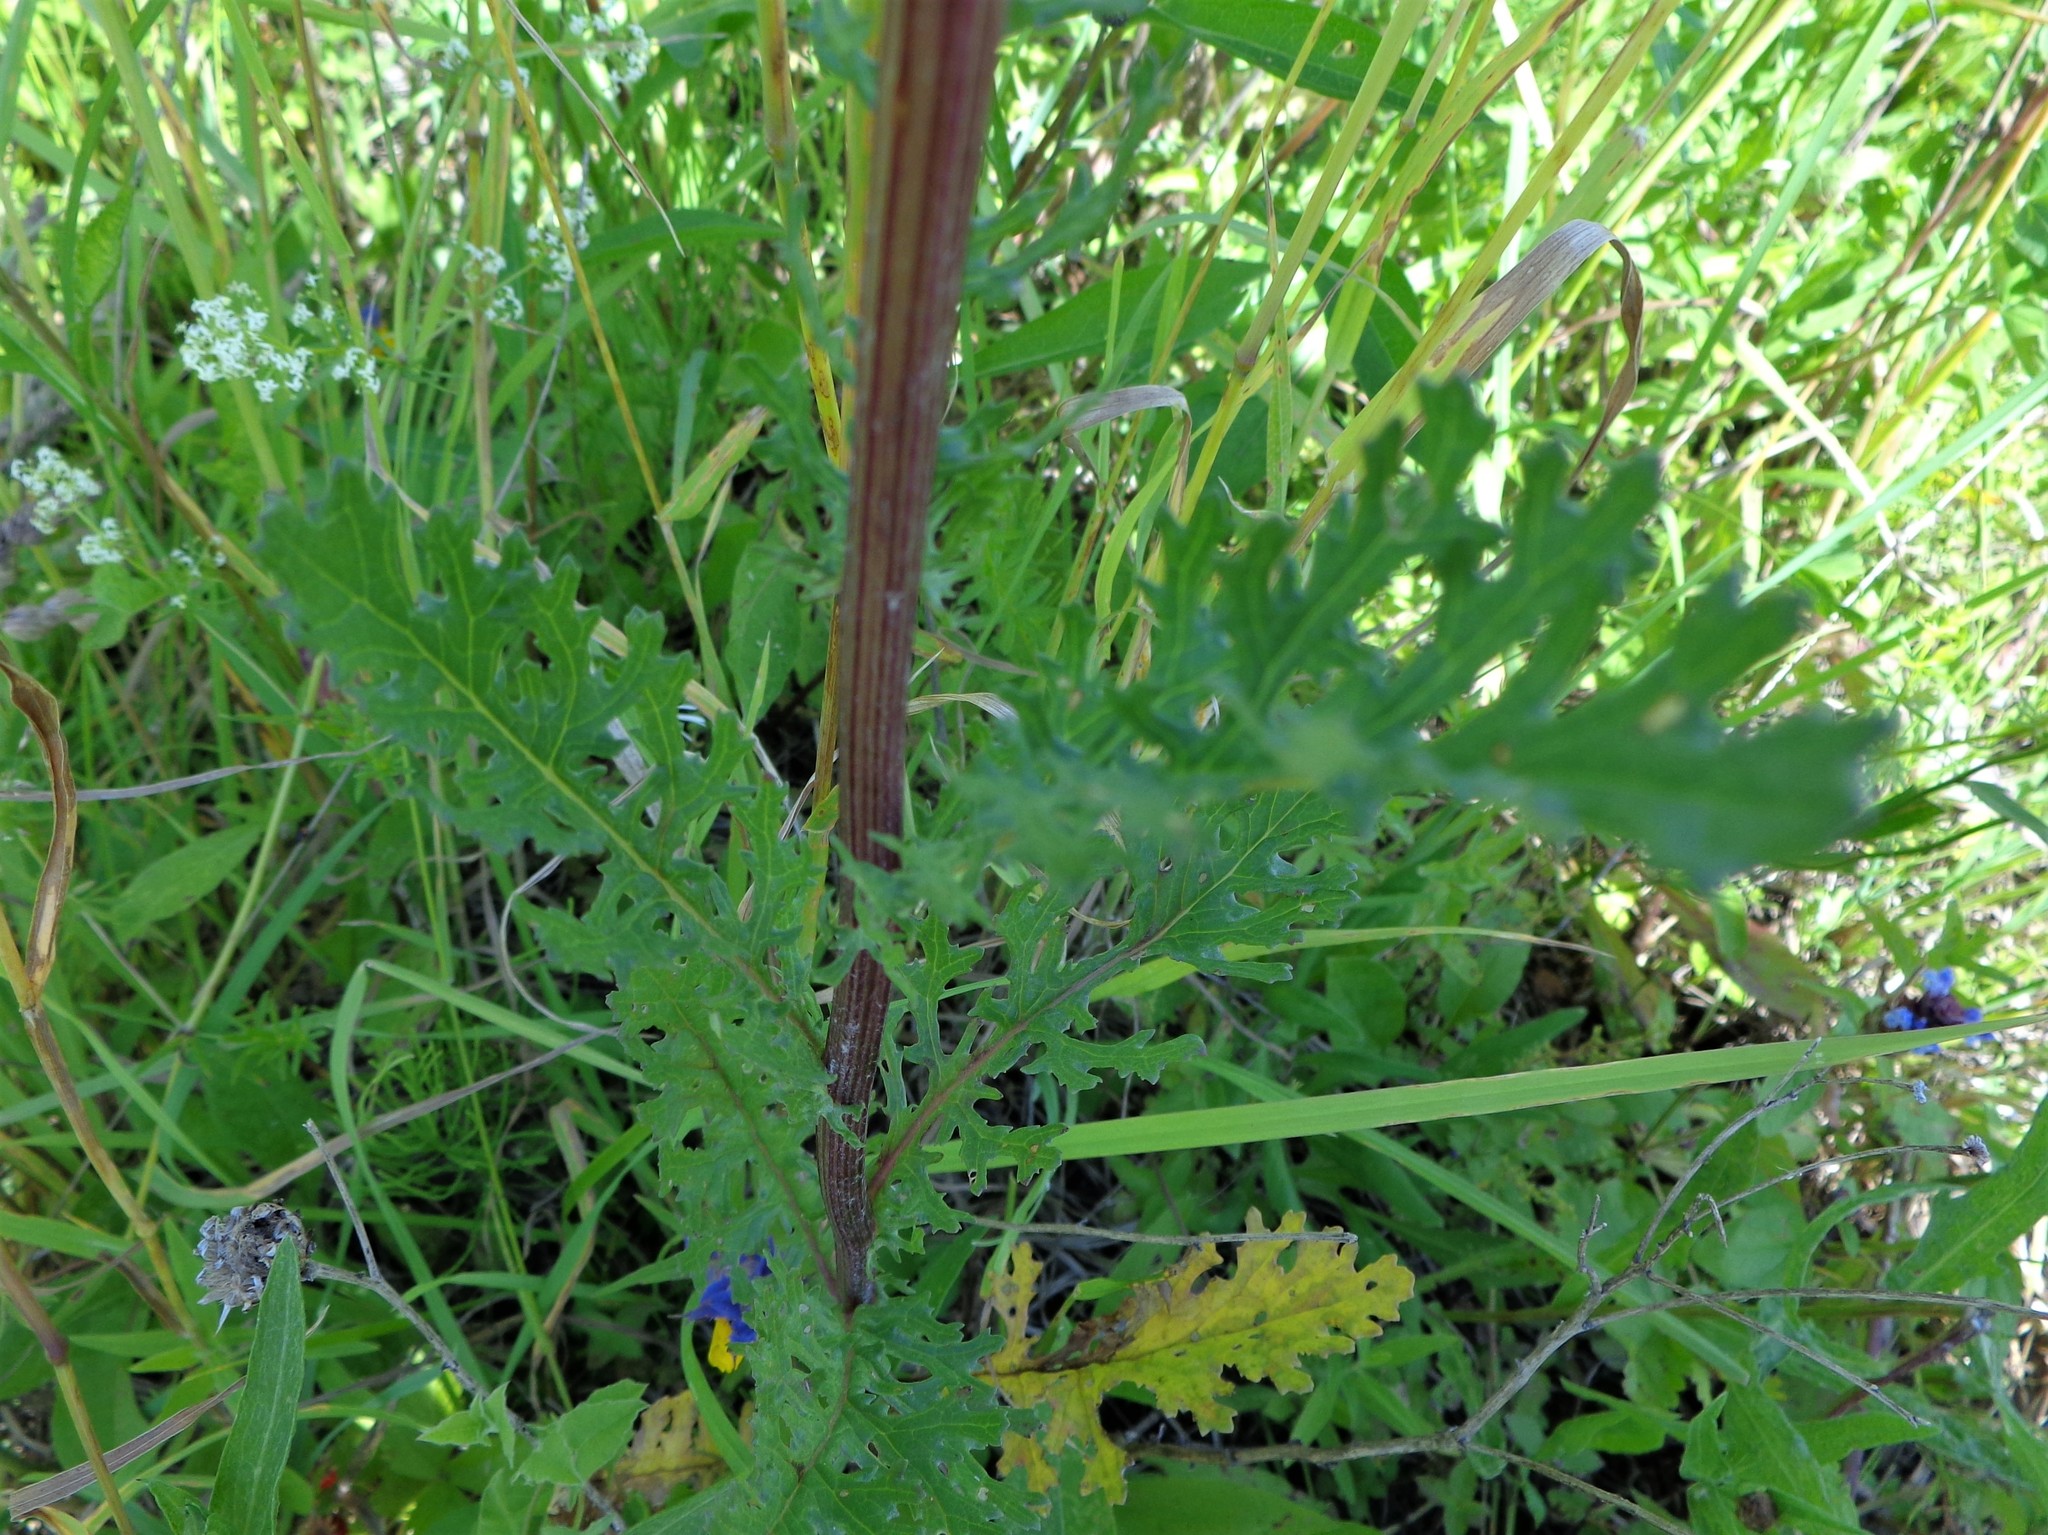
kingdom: Plantae
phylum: Tracheophyta
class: Magnoliopsida
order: Asterales
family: Asteraceae
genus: Jacobaea
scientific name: Jacobaea vulgaris
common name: Stinking willie
